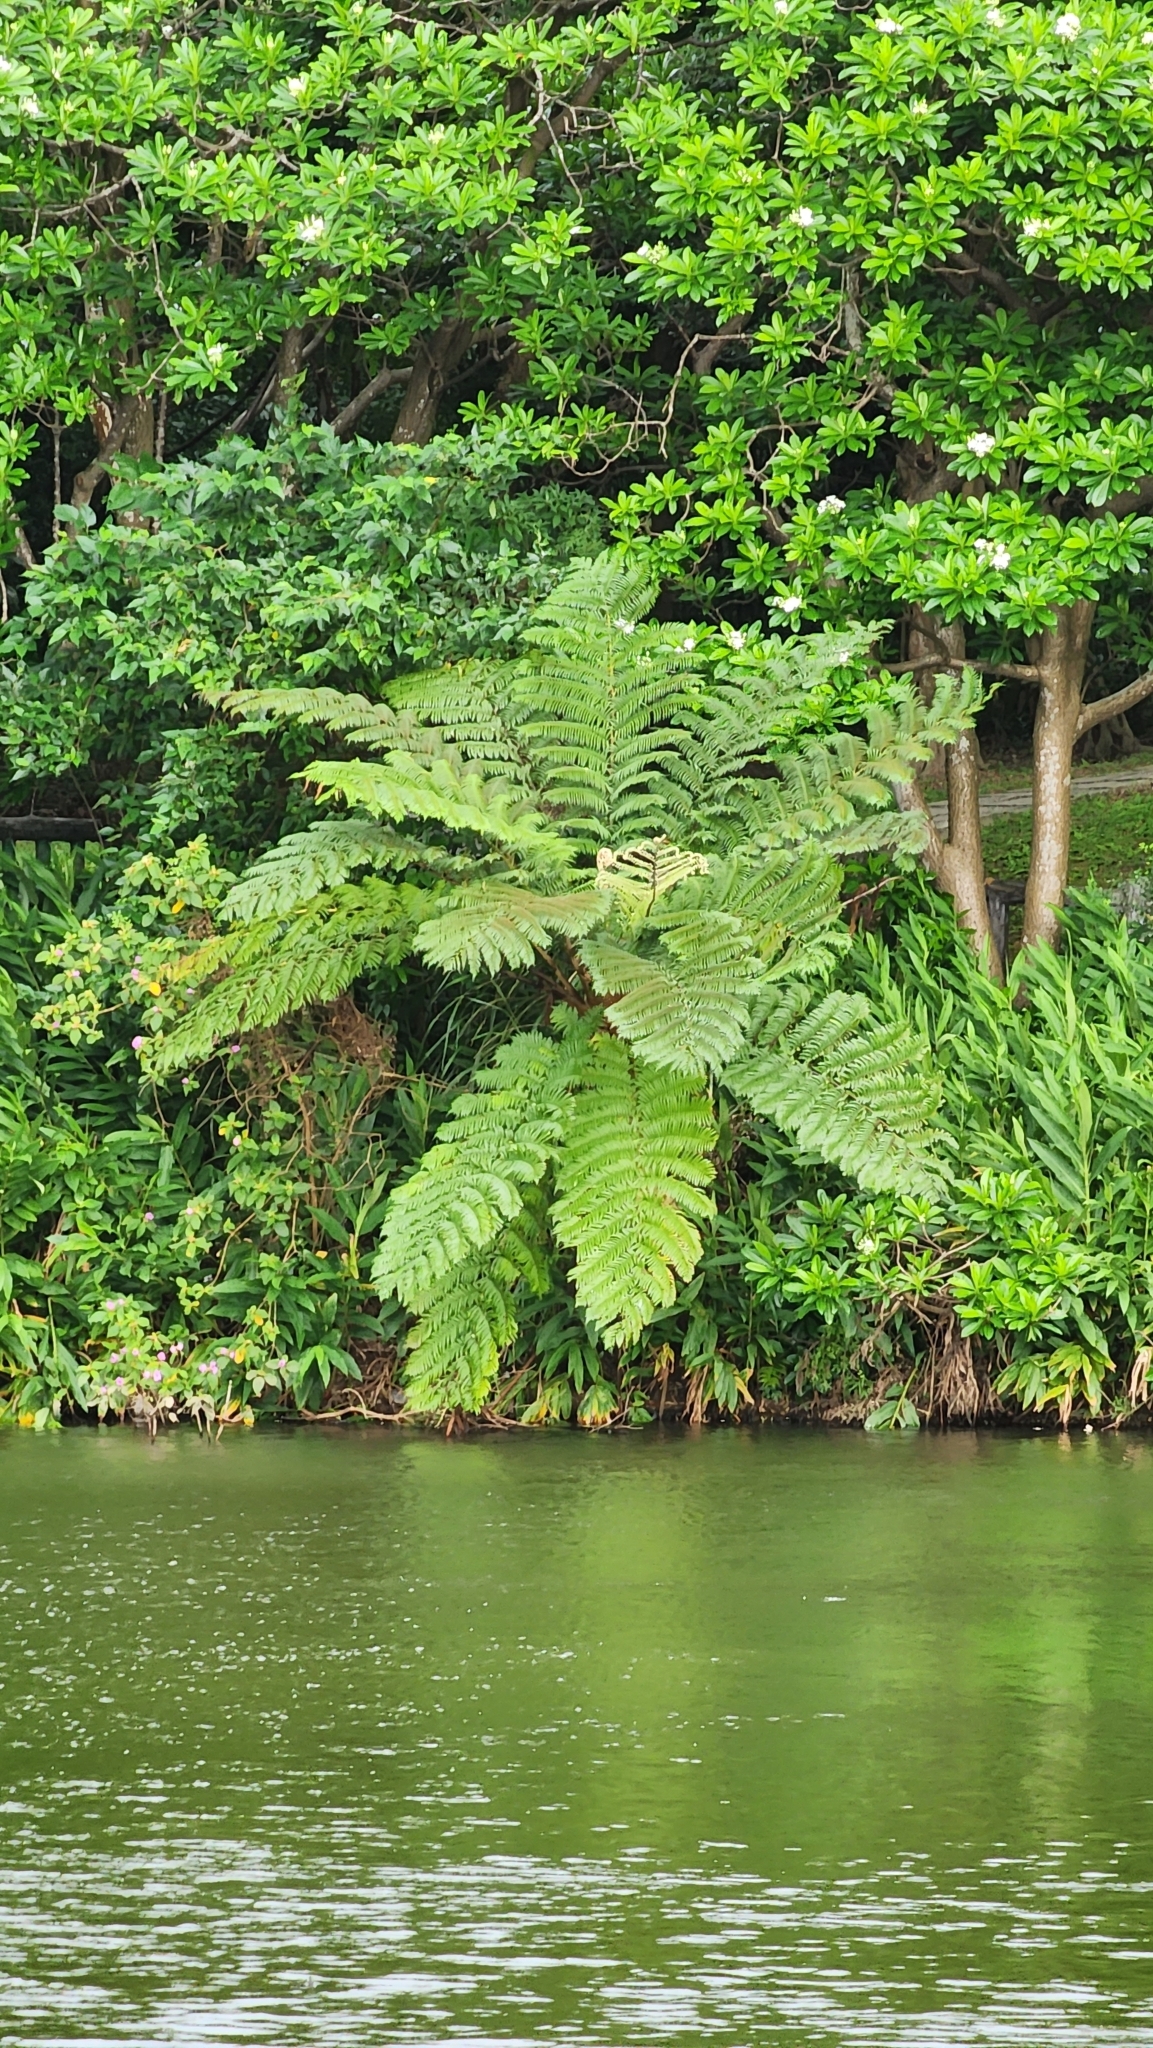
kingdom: Plantae
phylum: Tracheophyta
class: Polypodiopsida
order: Cyatheales
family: Cyatheaceae
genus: Alsophila
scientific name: Alsophila lepifera
